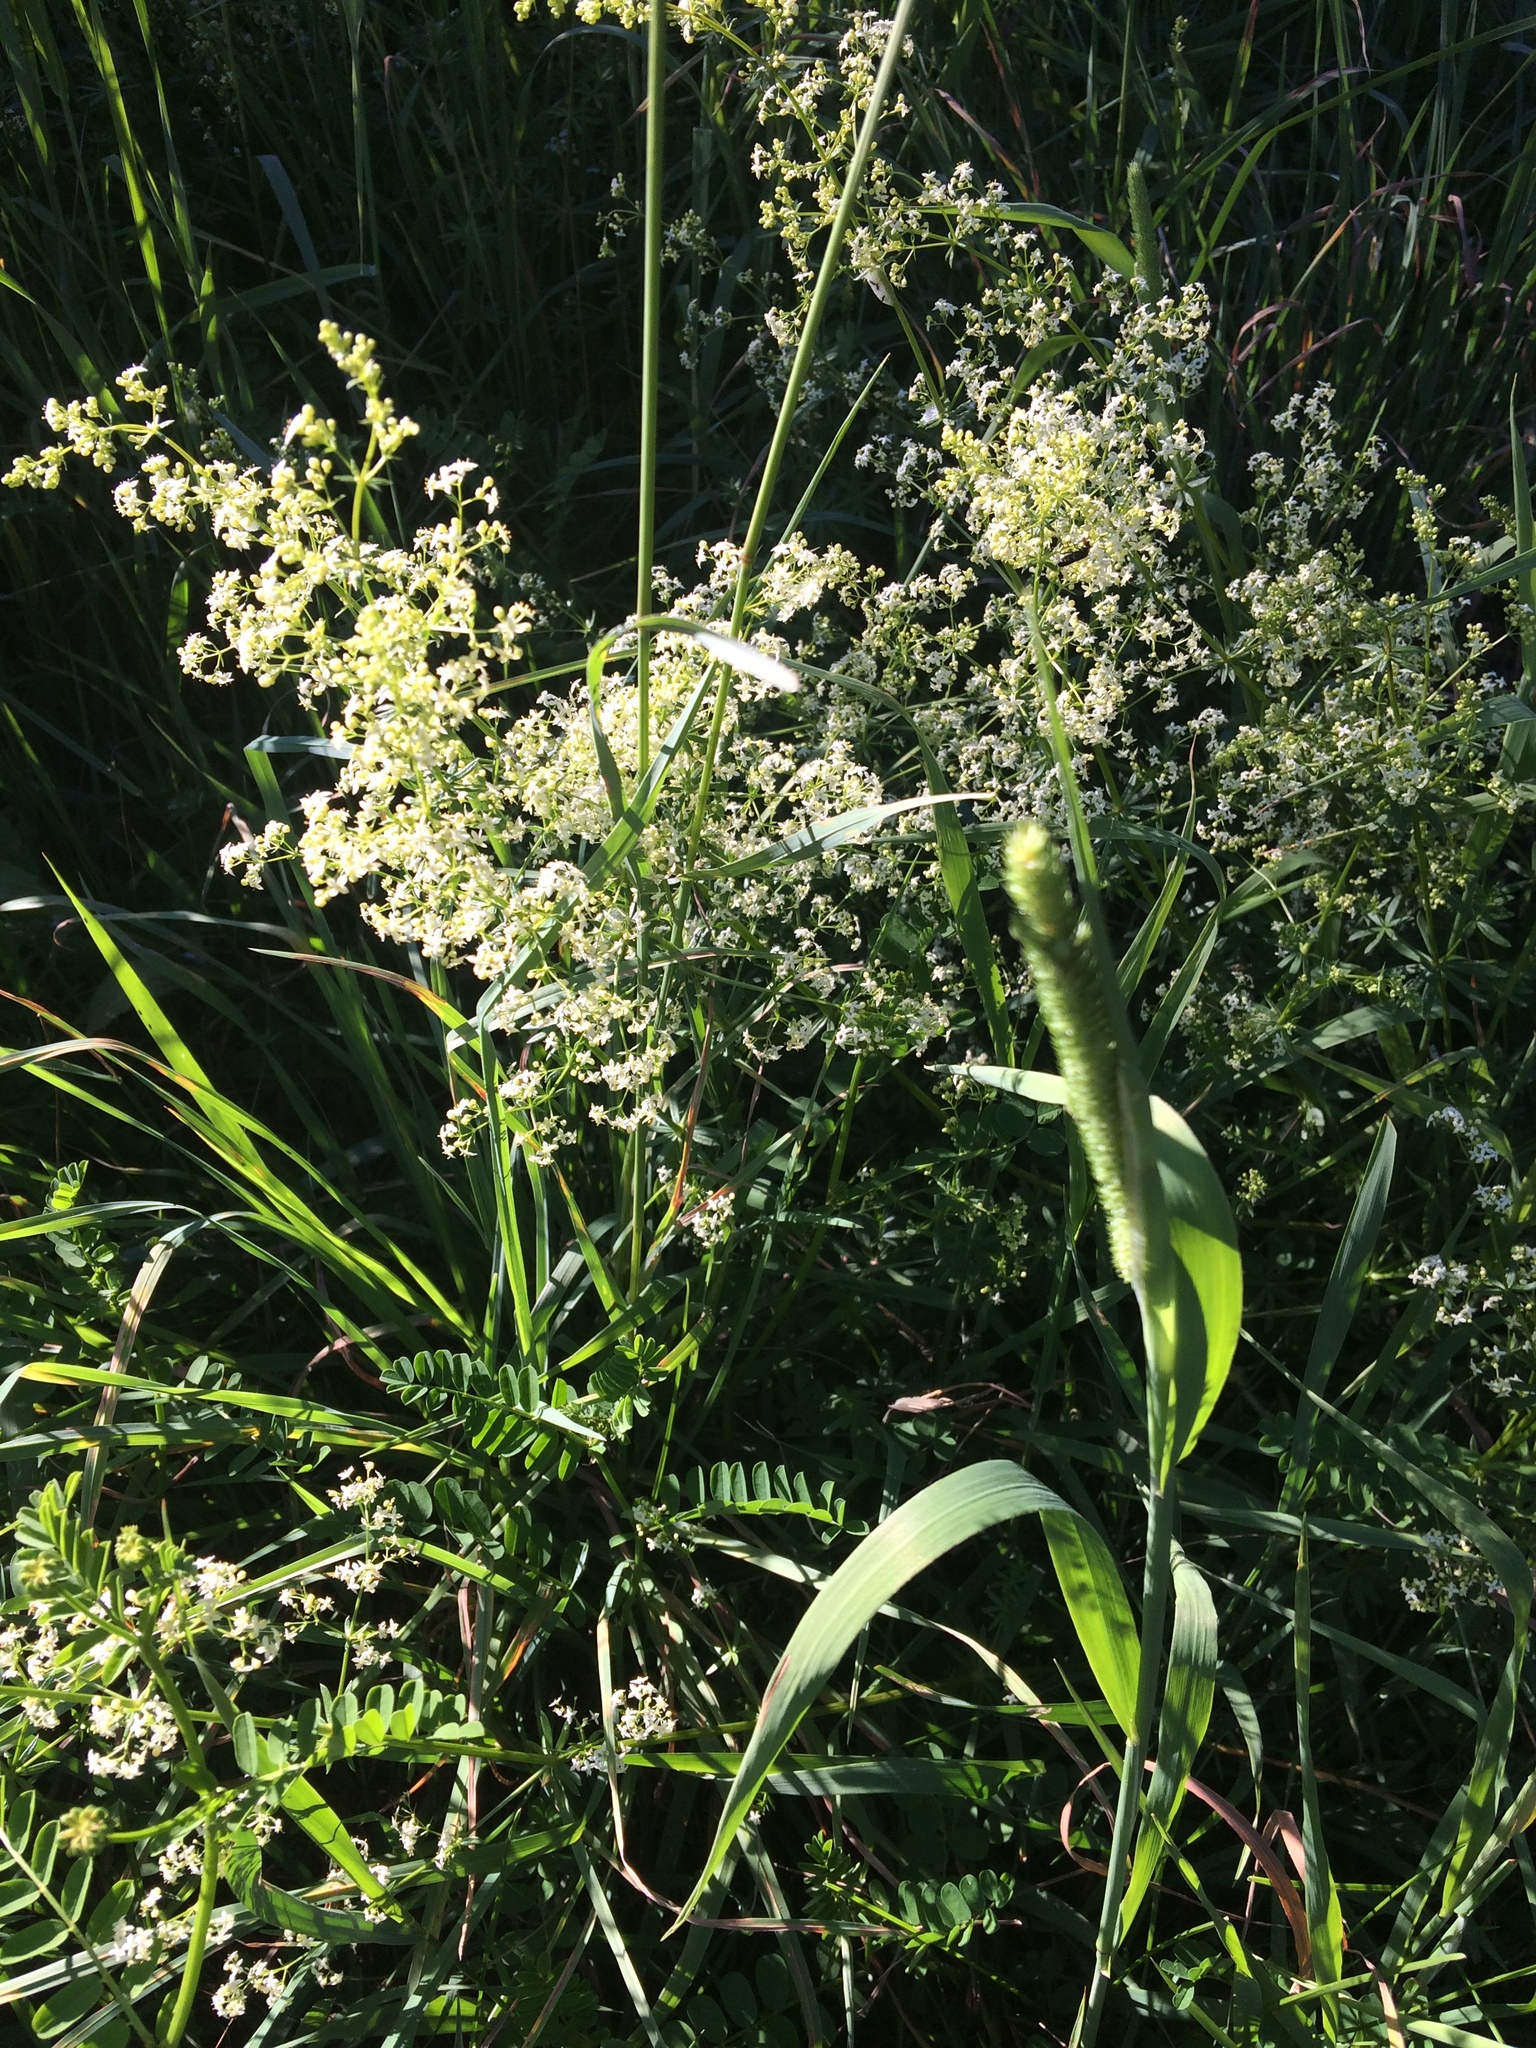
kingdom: Plantae
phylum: Tracheophyta
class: Magnoliopsida
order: Gentianales
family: Rubiaceae
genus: Galium
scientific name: Galium mollugo
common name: Hedge bedstraw
